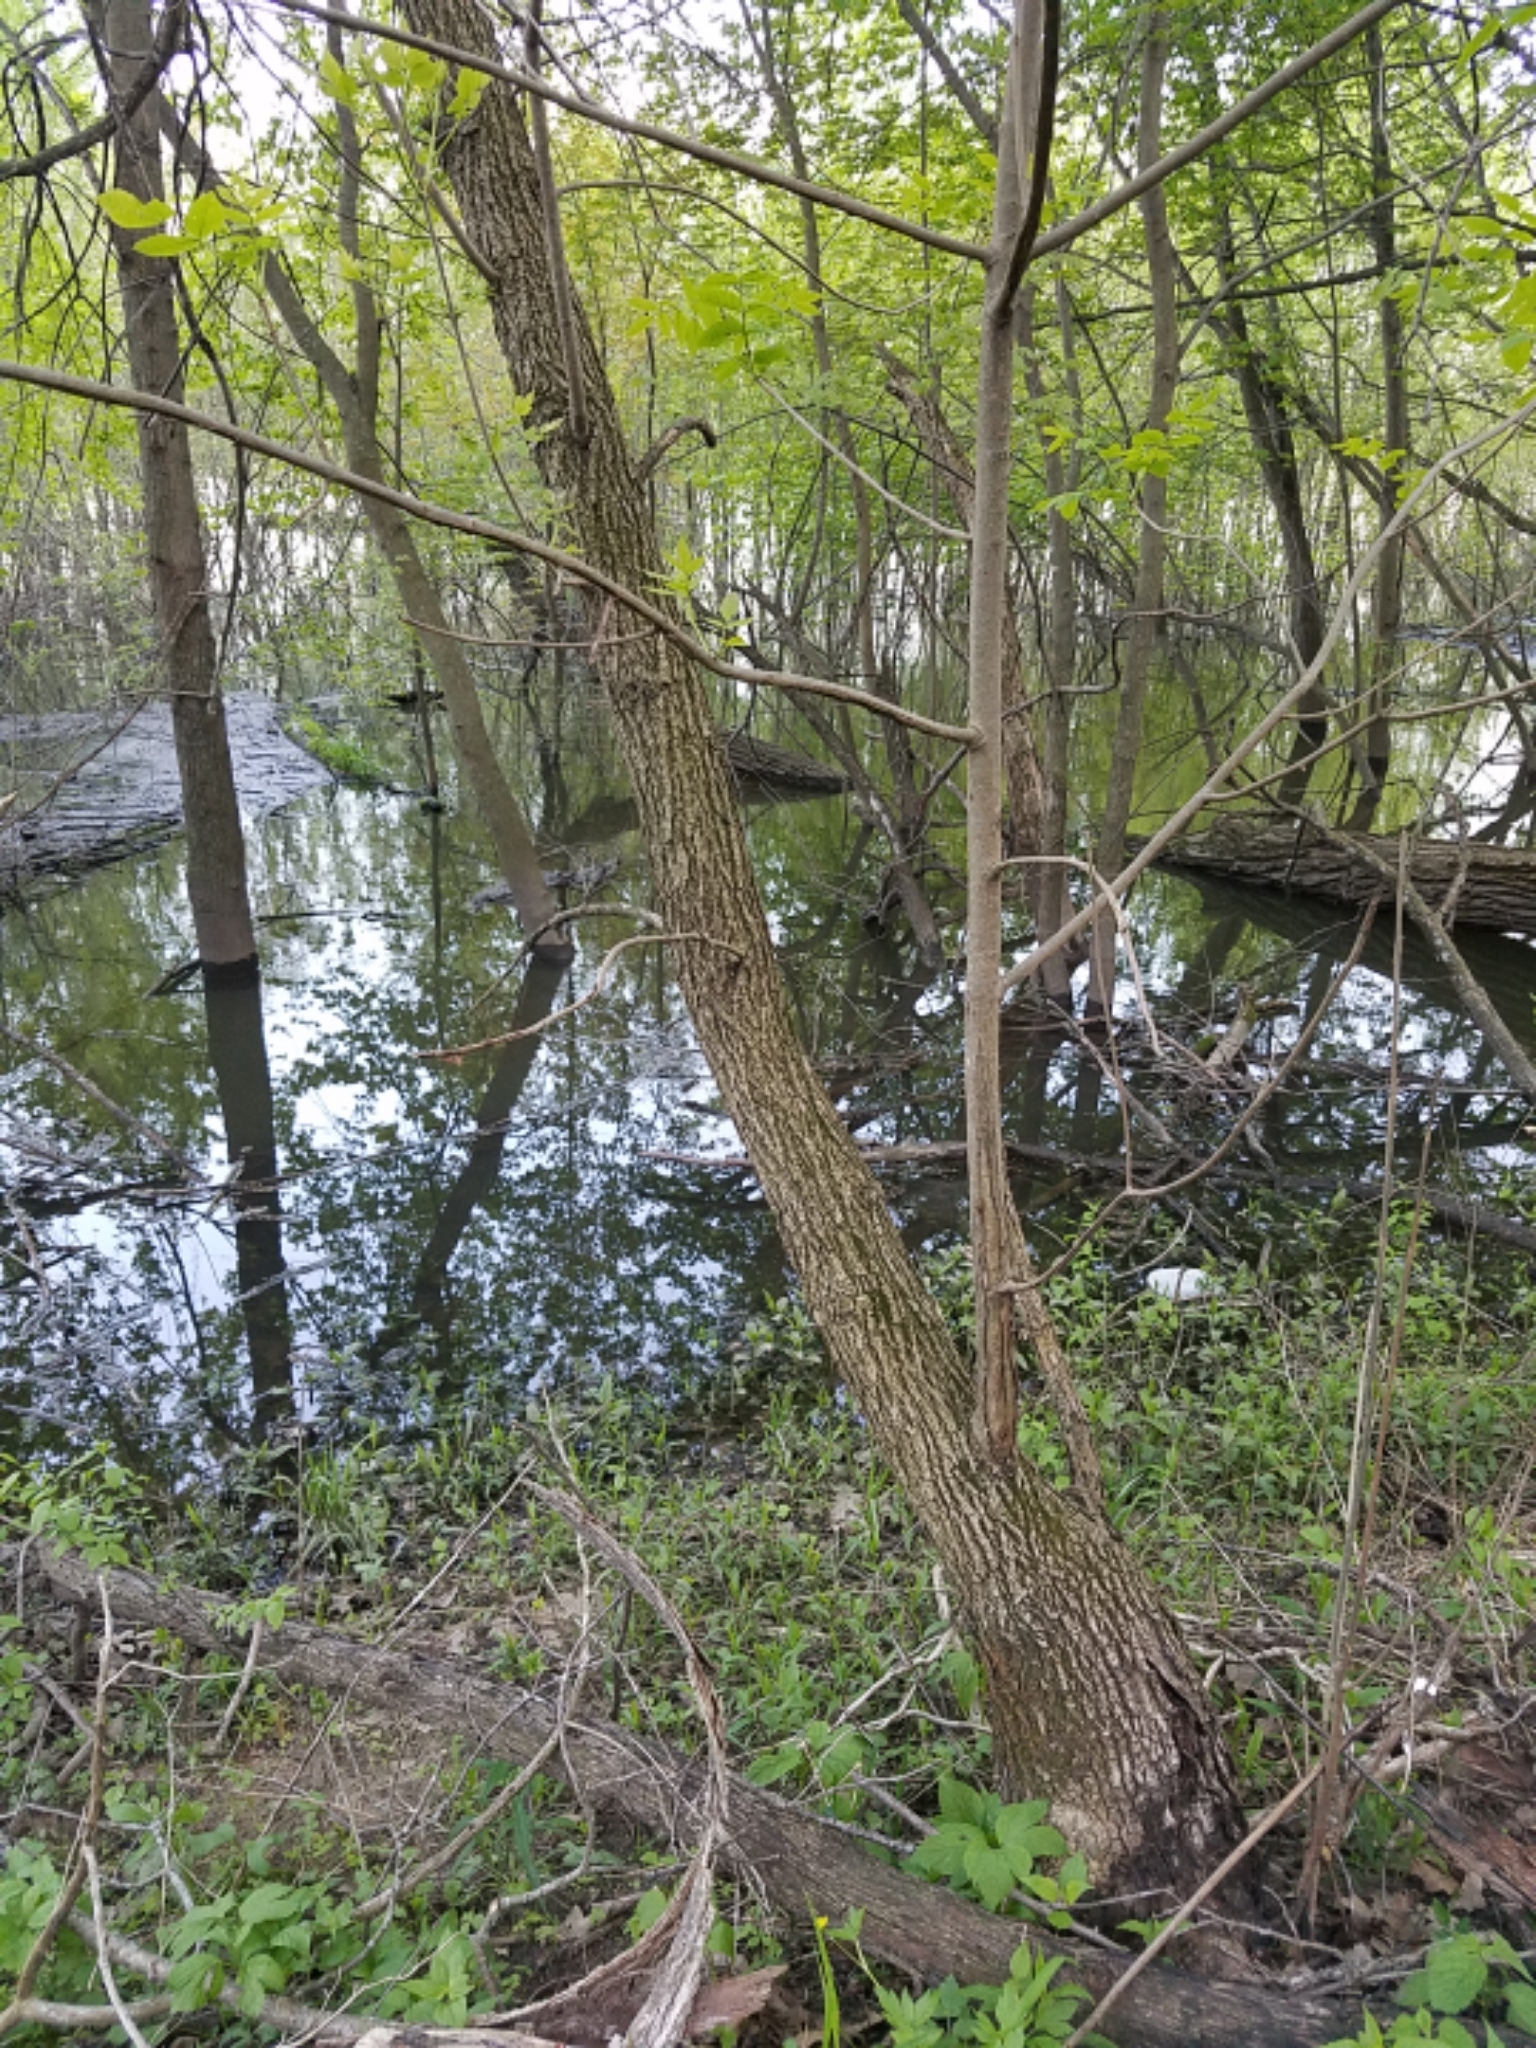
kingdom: Plantae
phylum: Tracheophyta
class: Magnoliopsida
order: Lamiales
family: Oleaceae
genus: Fraxinus
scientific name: Fraxinus pennsylvanica
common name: Green ash
